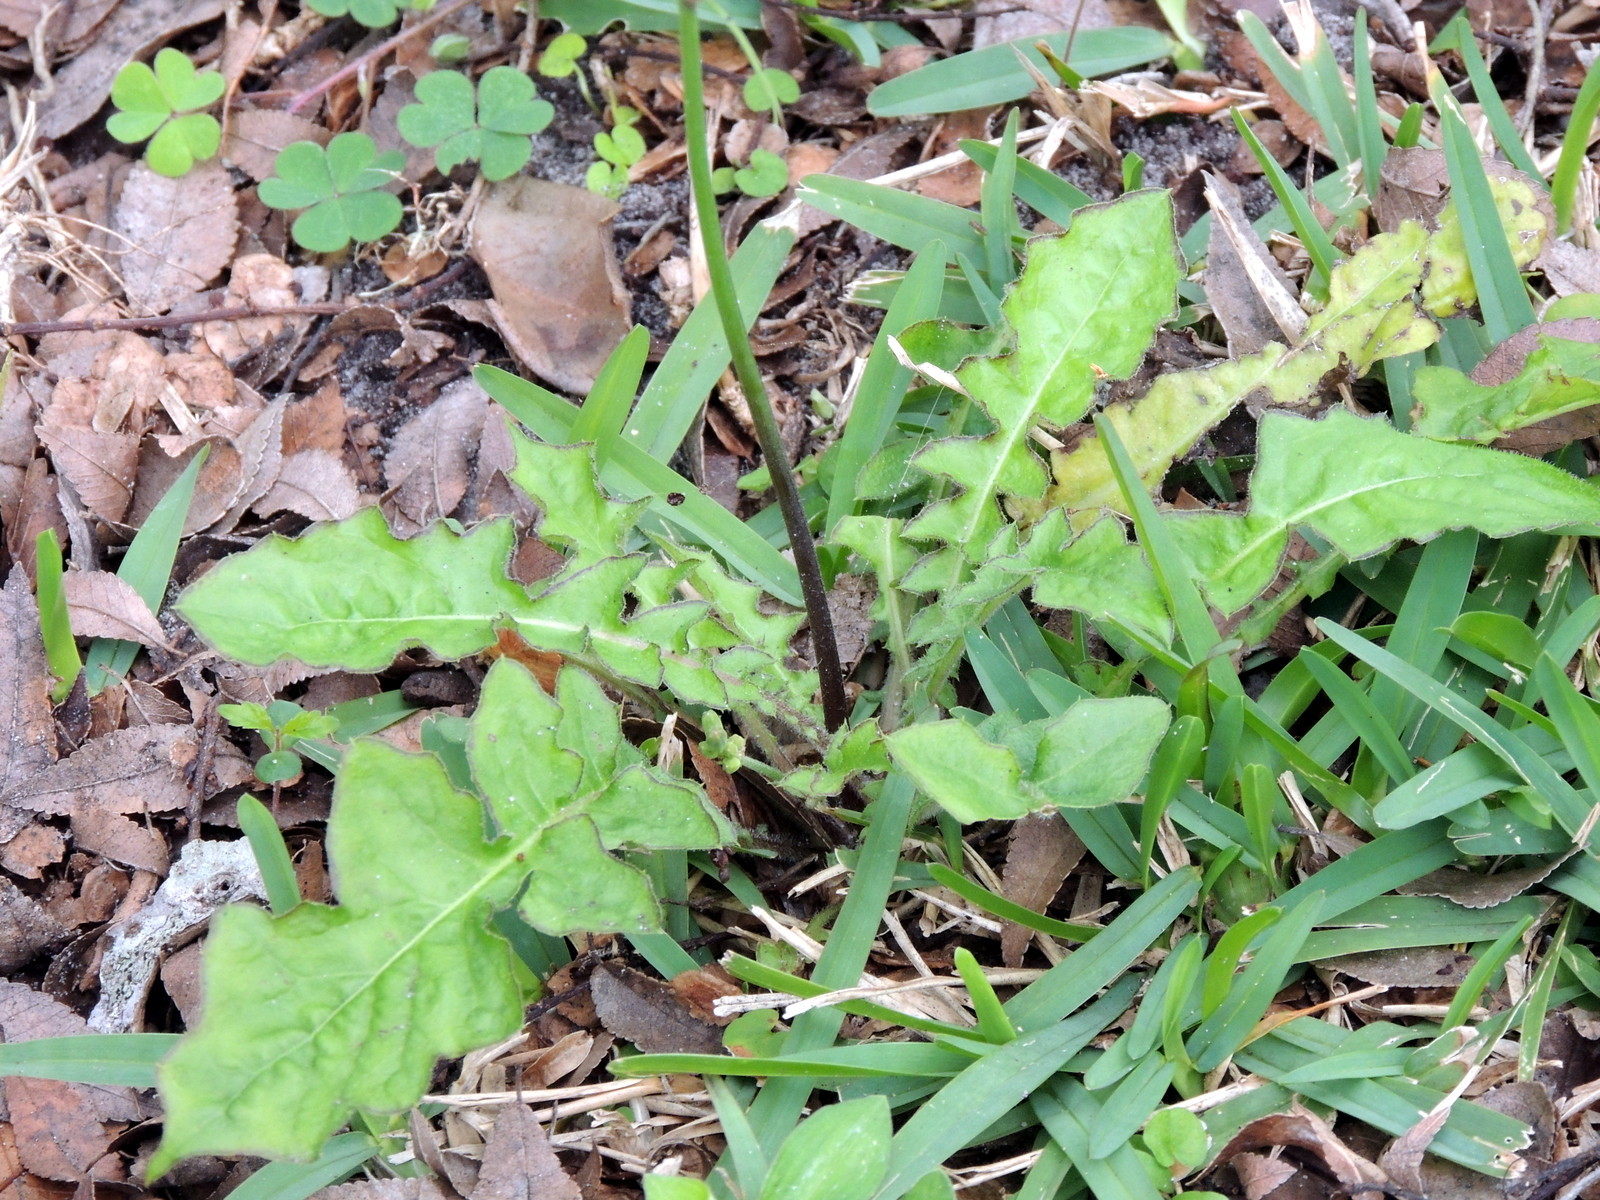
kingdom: Plantae
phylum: Tracheophyta
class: Magnoliopsida
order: Asterales
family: Asteraceae
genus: Youngia
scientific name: Youngia japonica
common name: Oriental false hawksbeard
